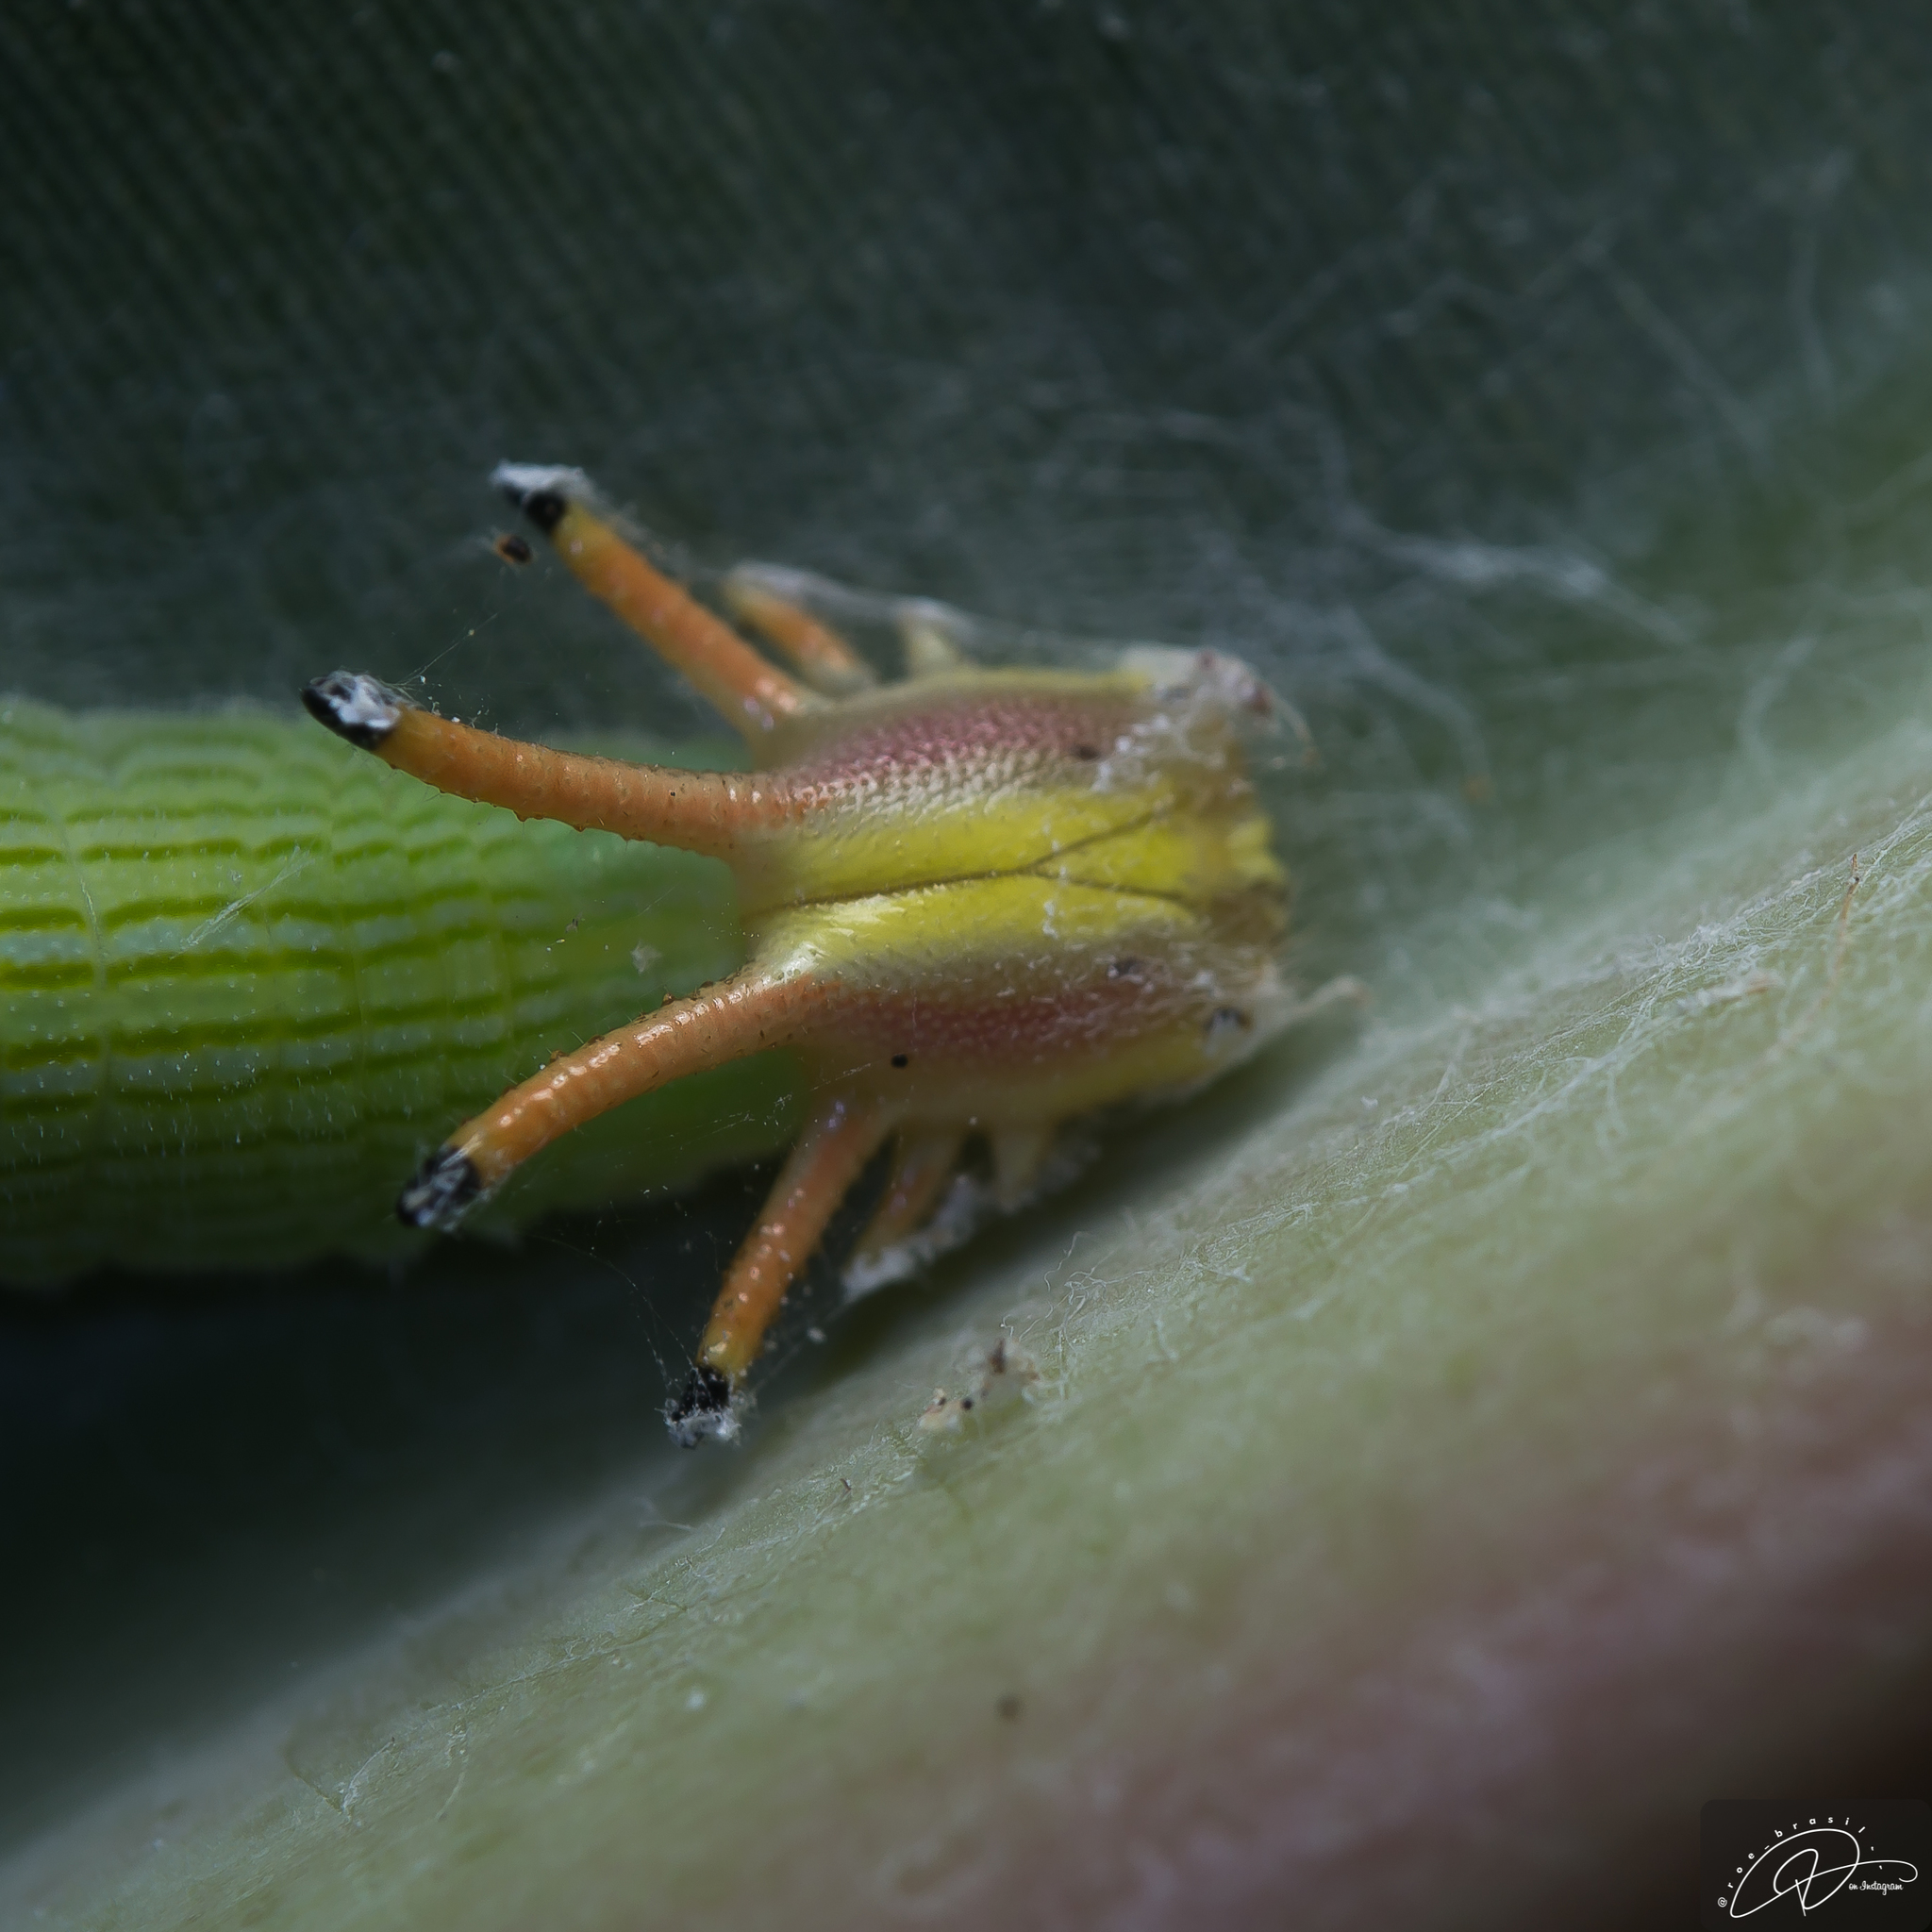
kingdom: Animalia
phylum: Arthropoda
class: Insecta
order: Lepidoptera
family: Nymphalidae
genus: Opsiphanes
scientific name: Opsiphanes cassiae
